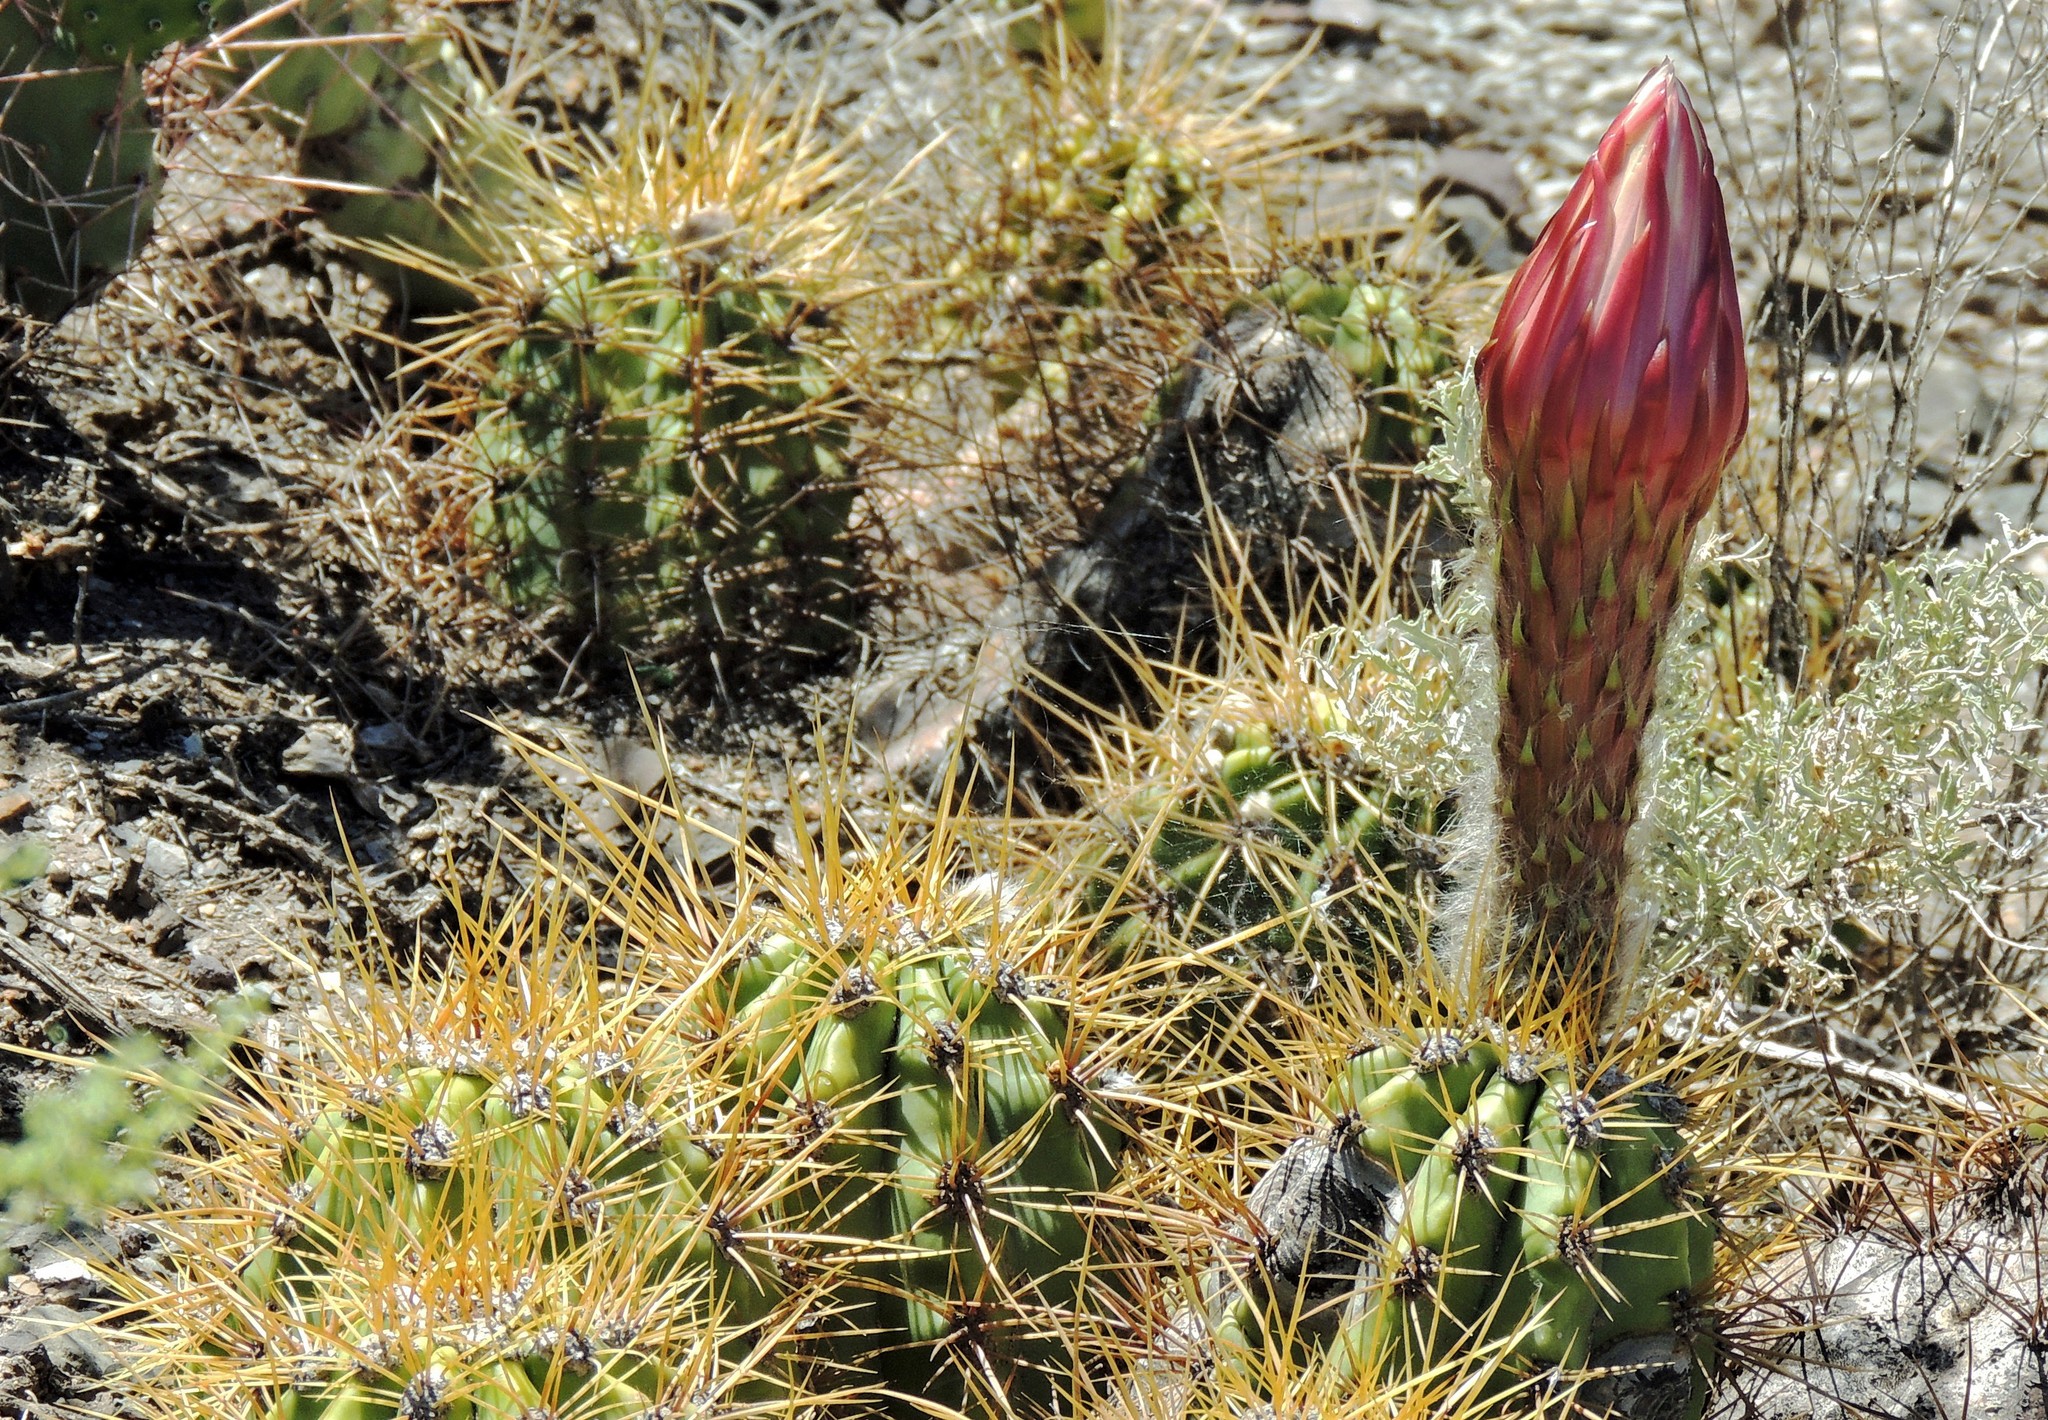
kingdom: Plantae
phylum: Tracheophyta
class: Magnoliopsida
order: Caryophyllales
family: Cactaceae
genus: Soehrensia
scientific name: Soehrensia candicans
